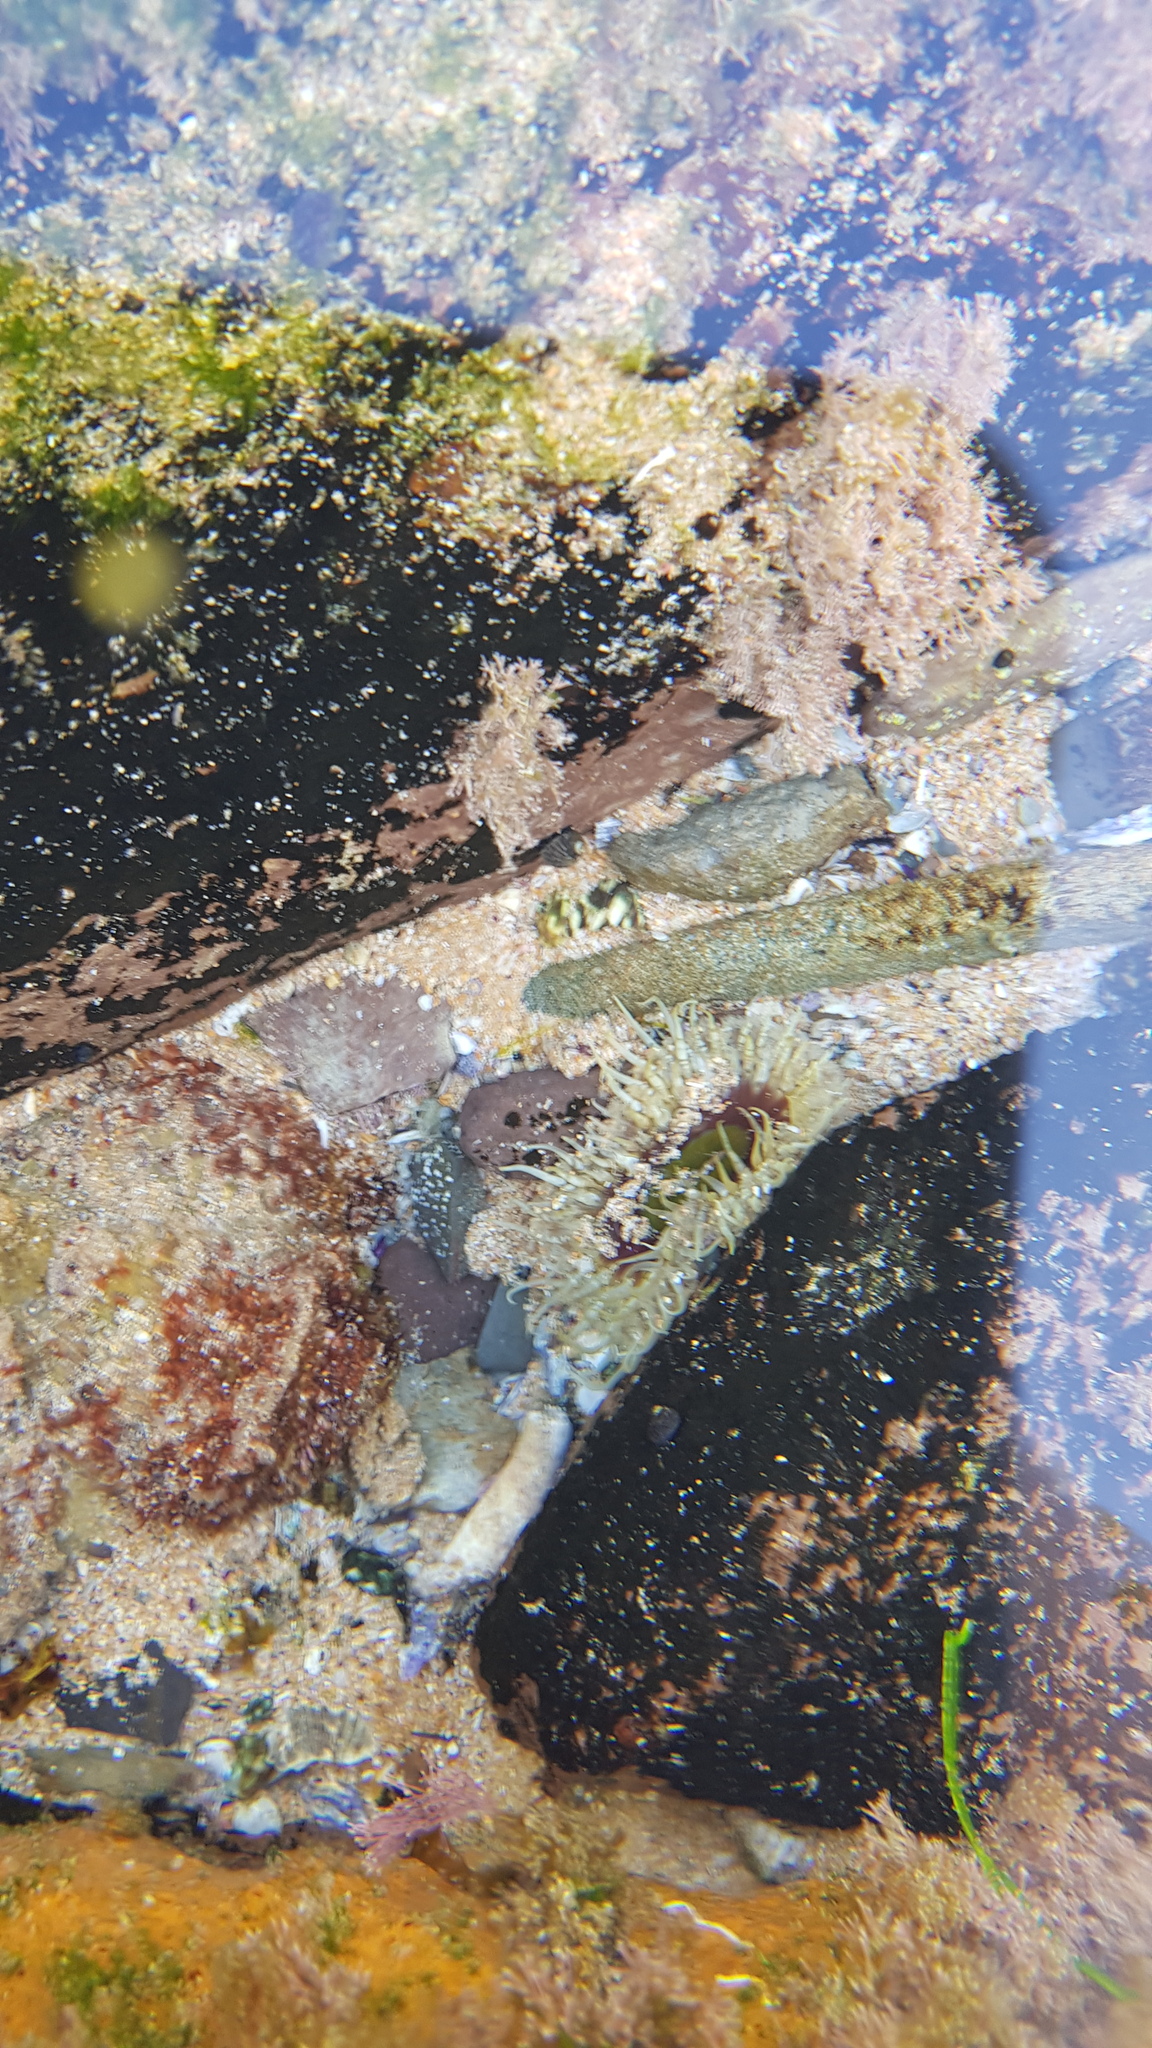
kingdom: Animalia
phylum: Cnidaria
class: Anthozoa
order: Actiniaria
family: Actiniidae
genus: Oulactis
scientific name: Oulactis muscosa
